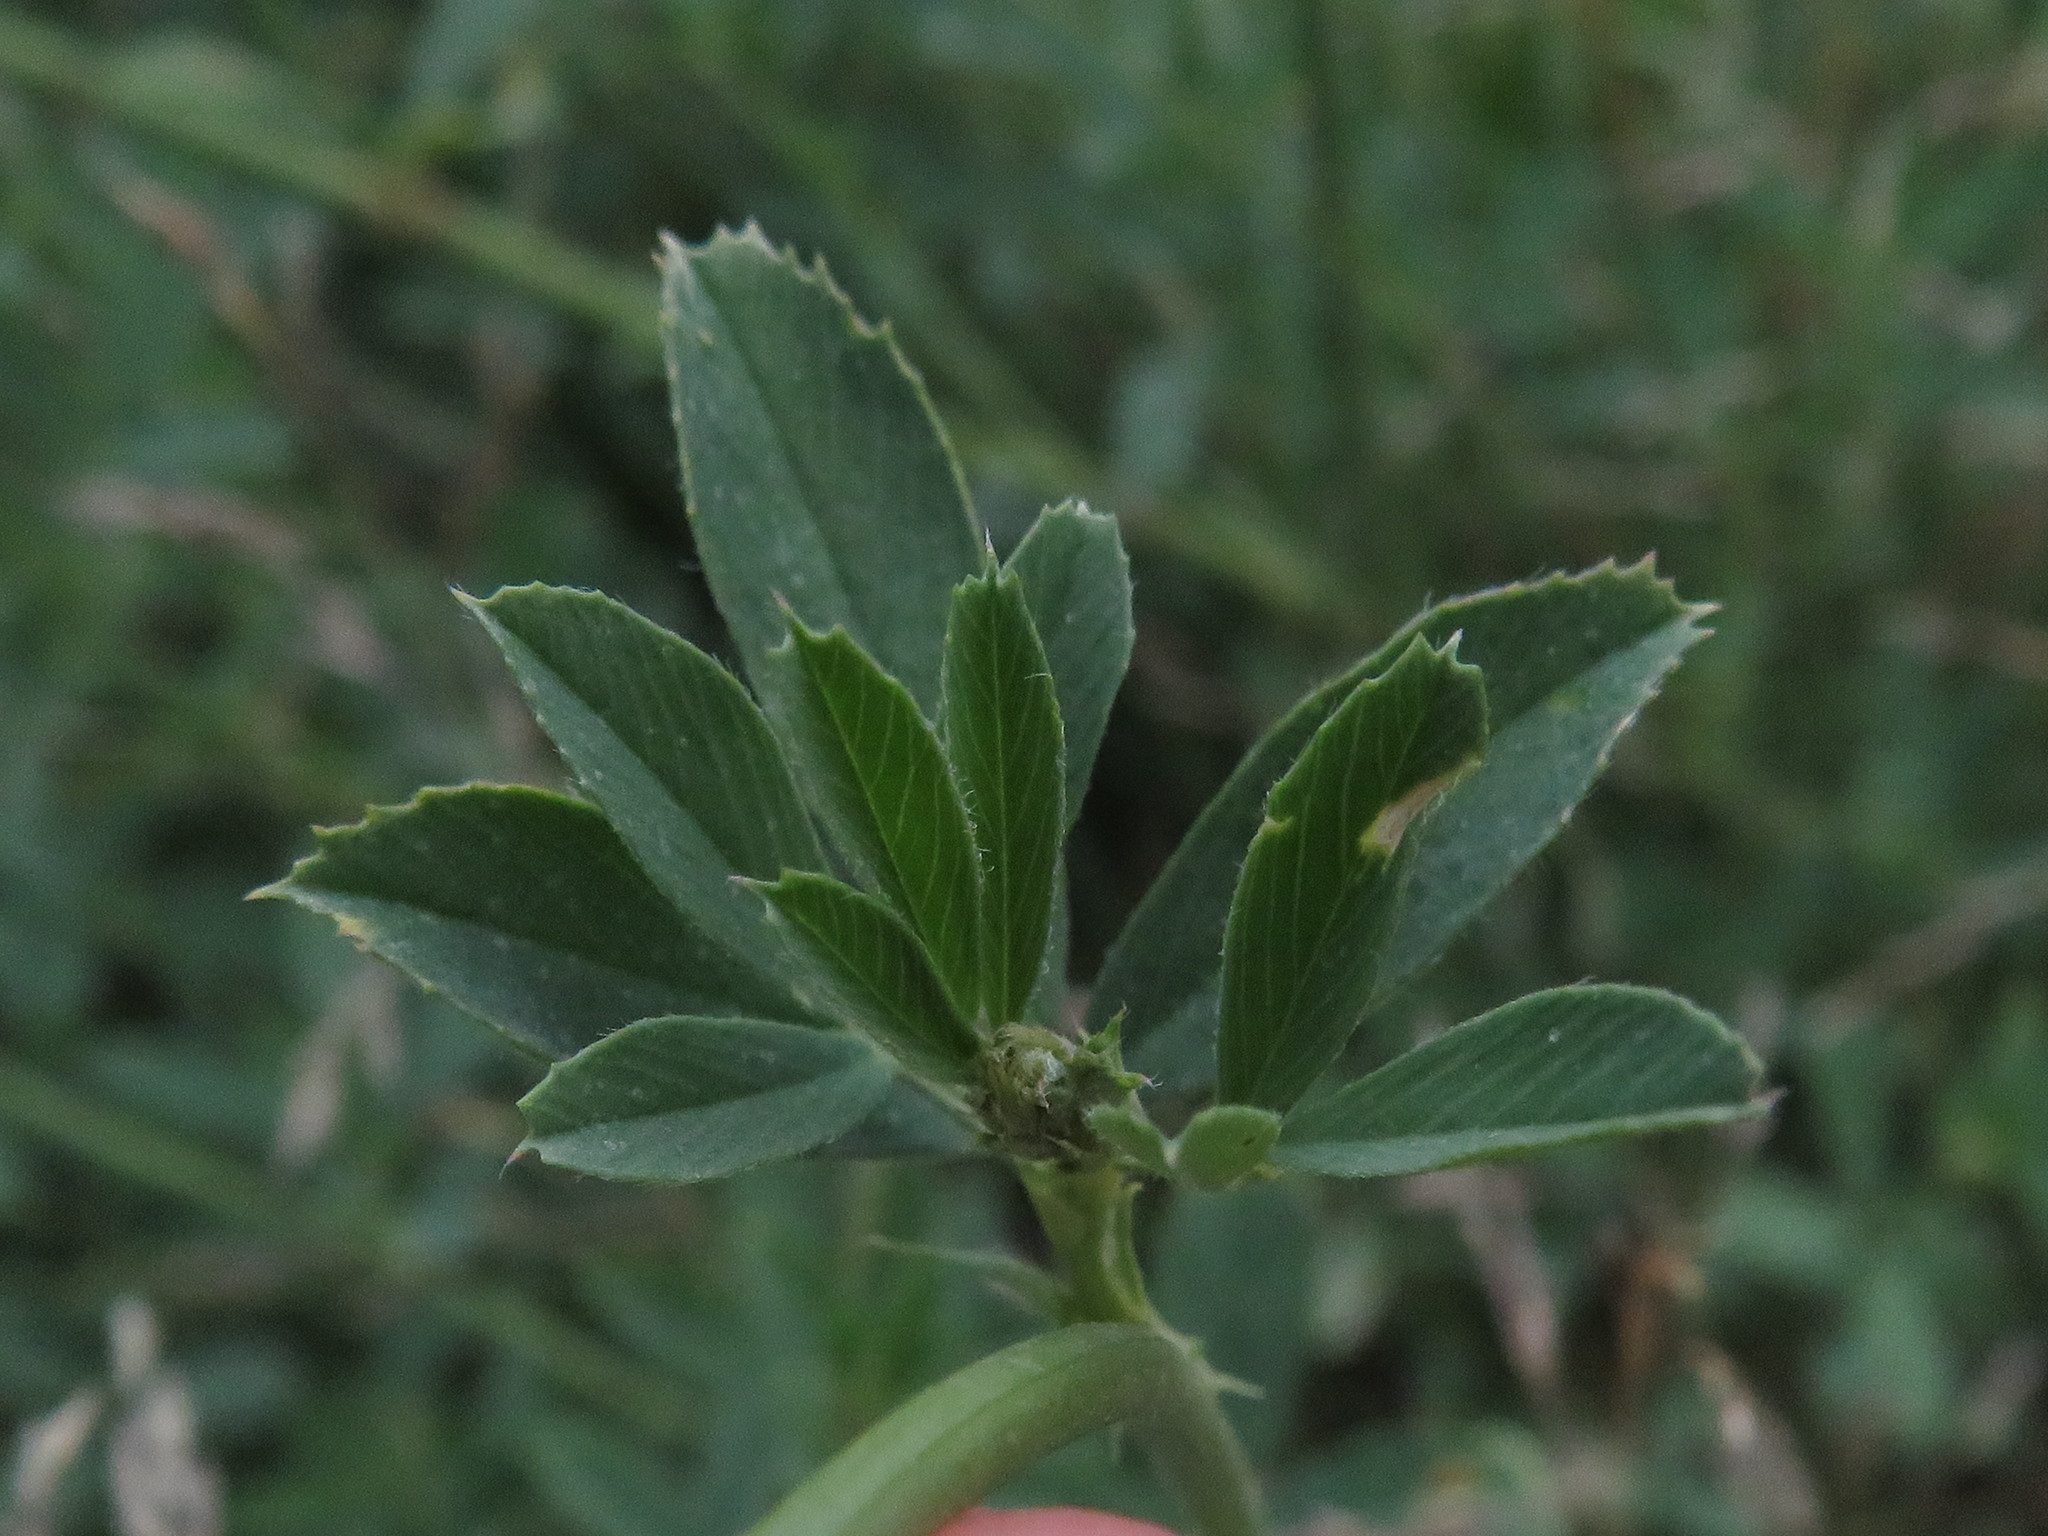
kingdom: Plantae
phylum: Tracheophyta
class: Magnoliopsida
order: Fabales
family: Fabaceae
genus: Medicago
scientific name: Medicago sativa
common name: Alfalfa
